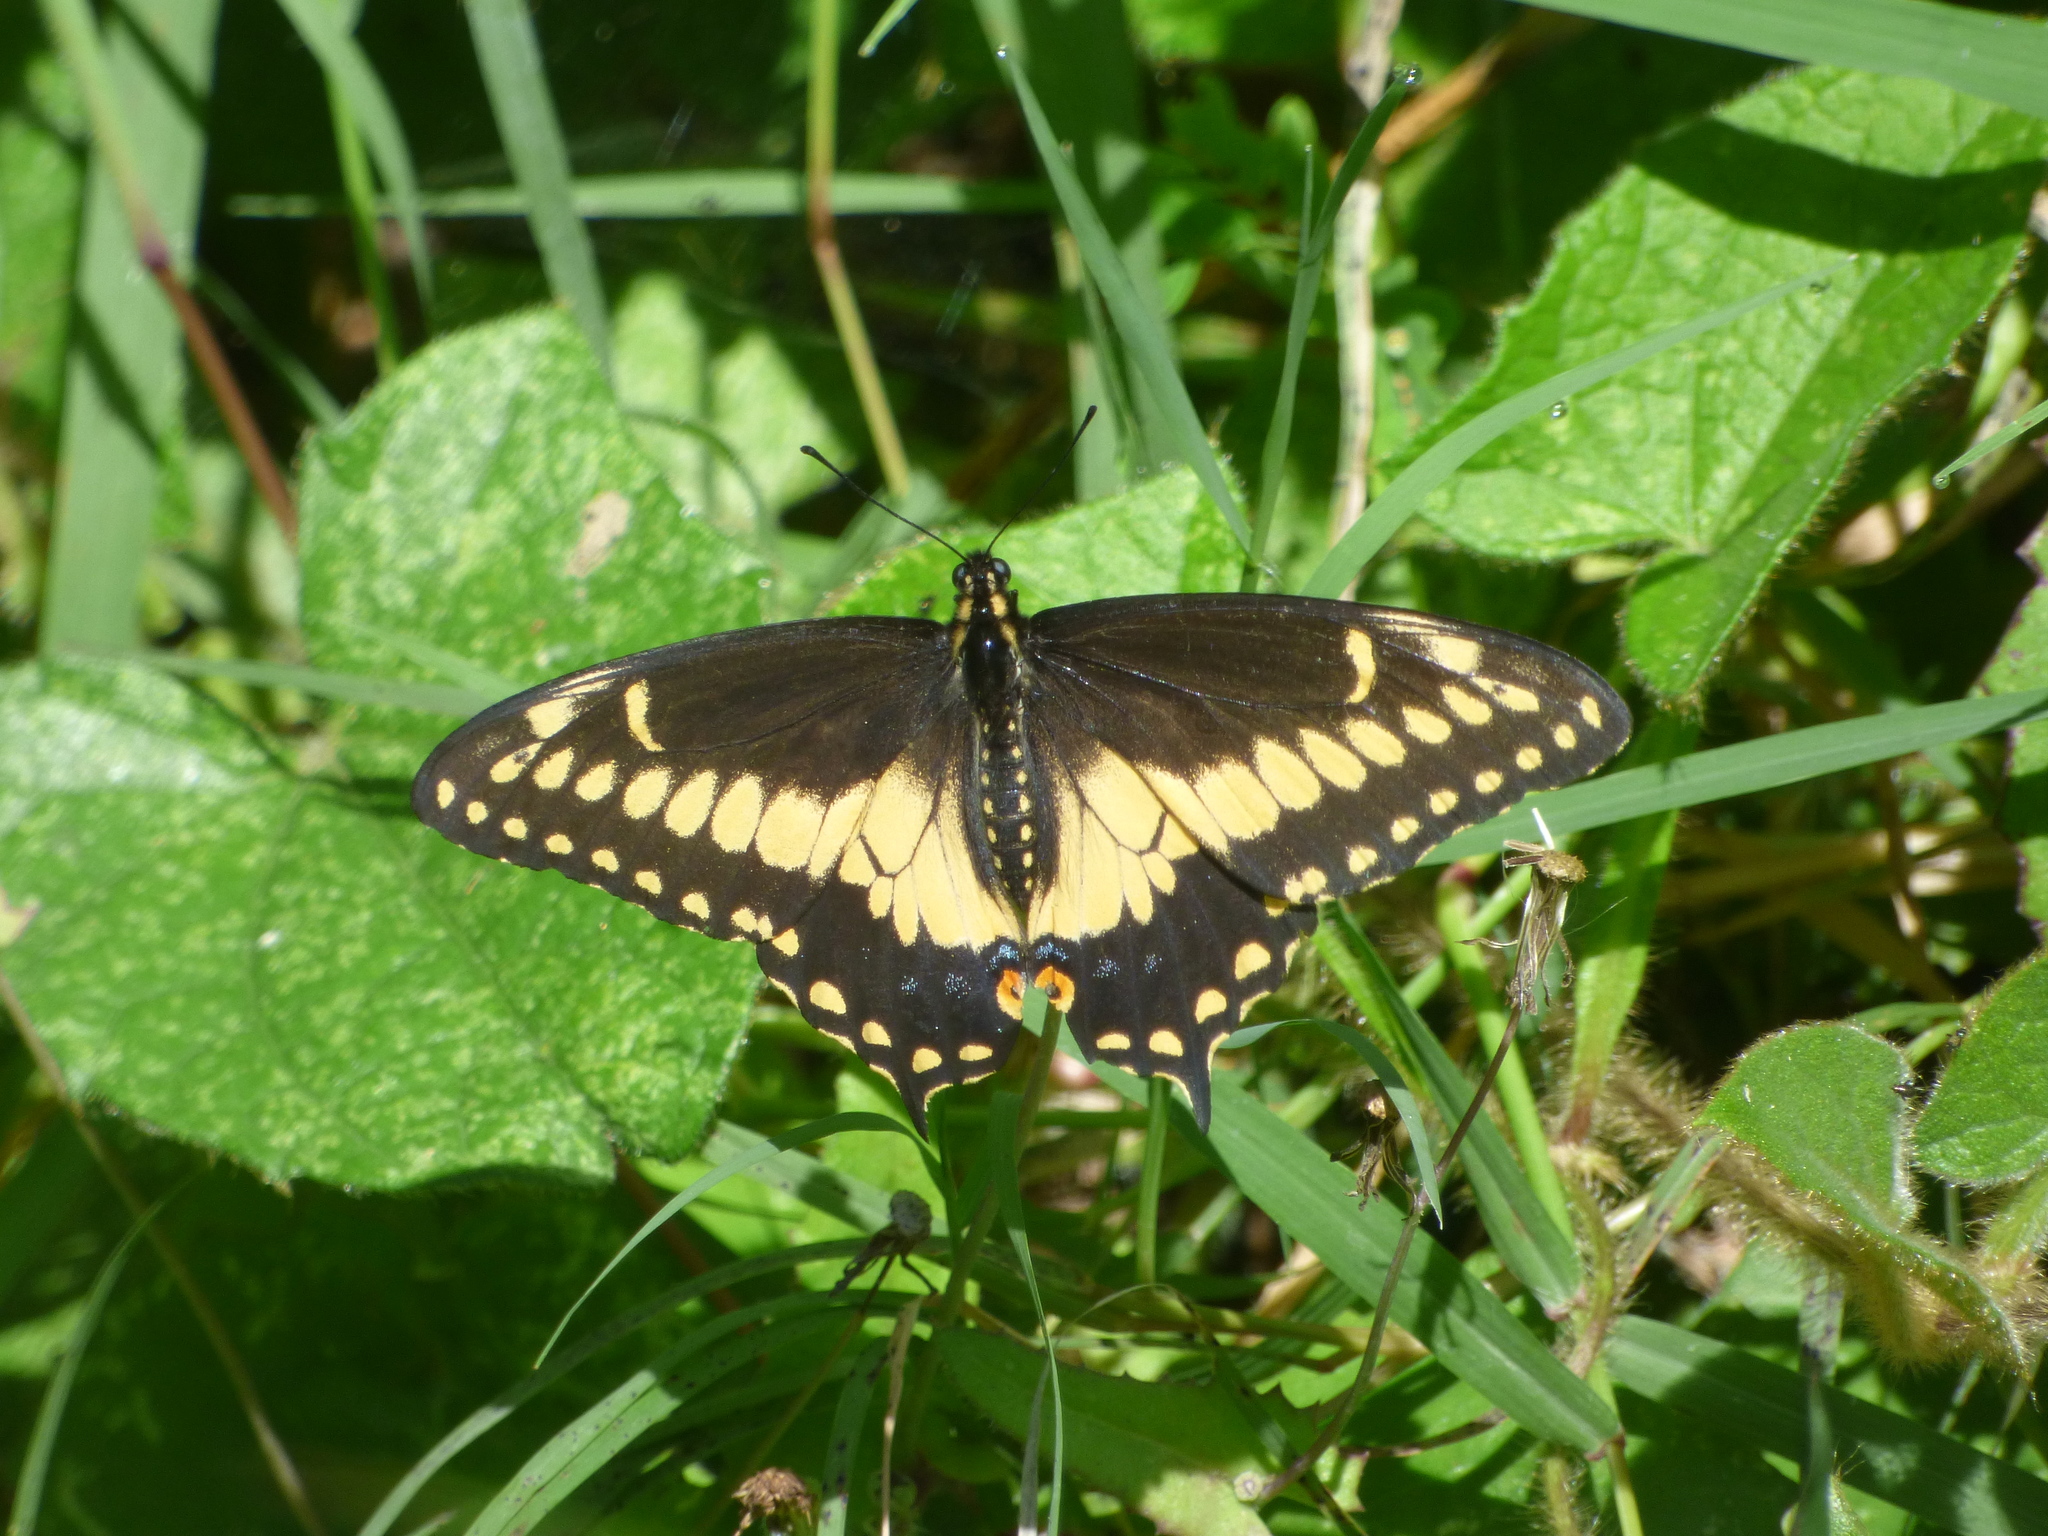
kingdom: Animalia
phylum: Arthropoda
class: Insecta
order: Lepidoptera
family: Papilionidae
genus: Papilio
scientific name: Papilio polyxenes
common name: Black swallowtail
